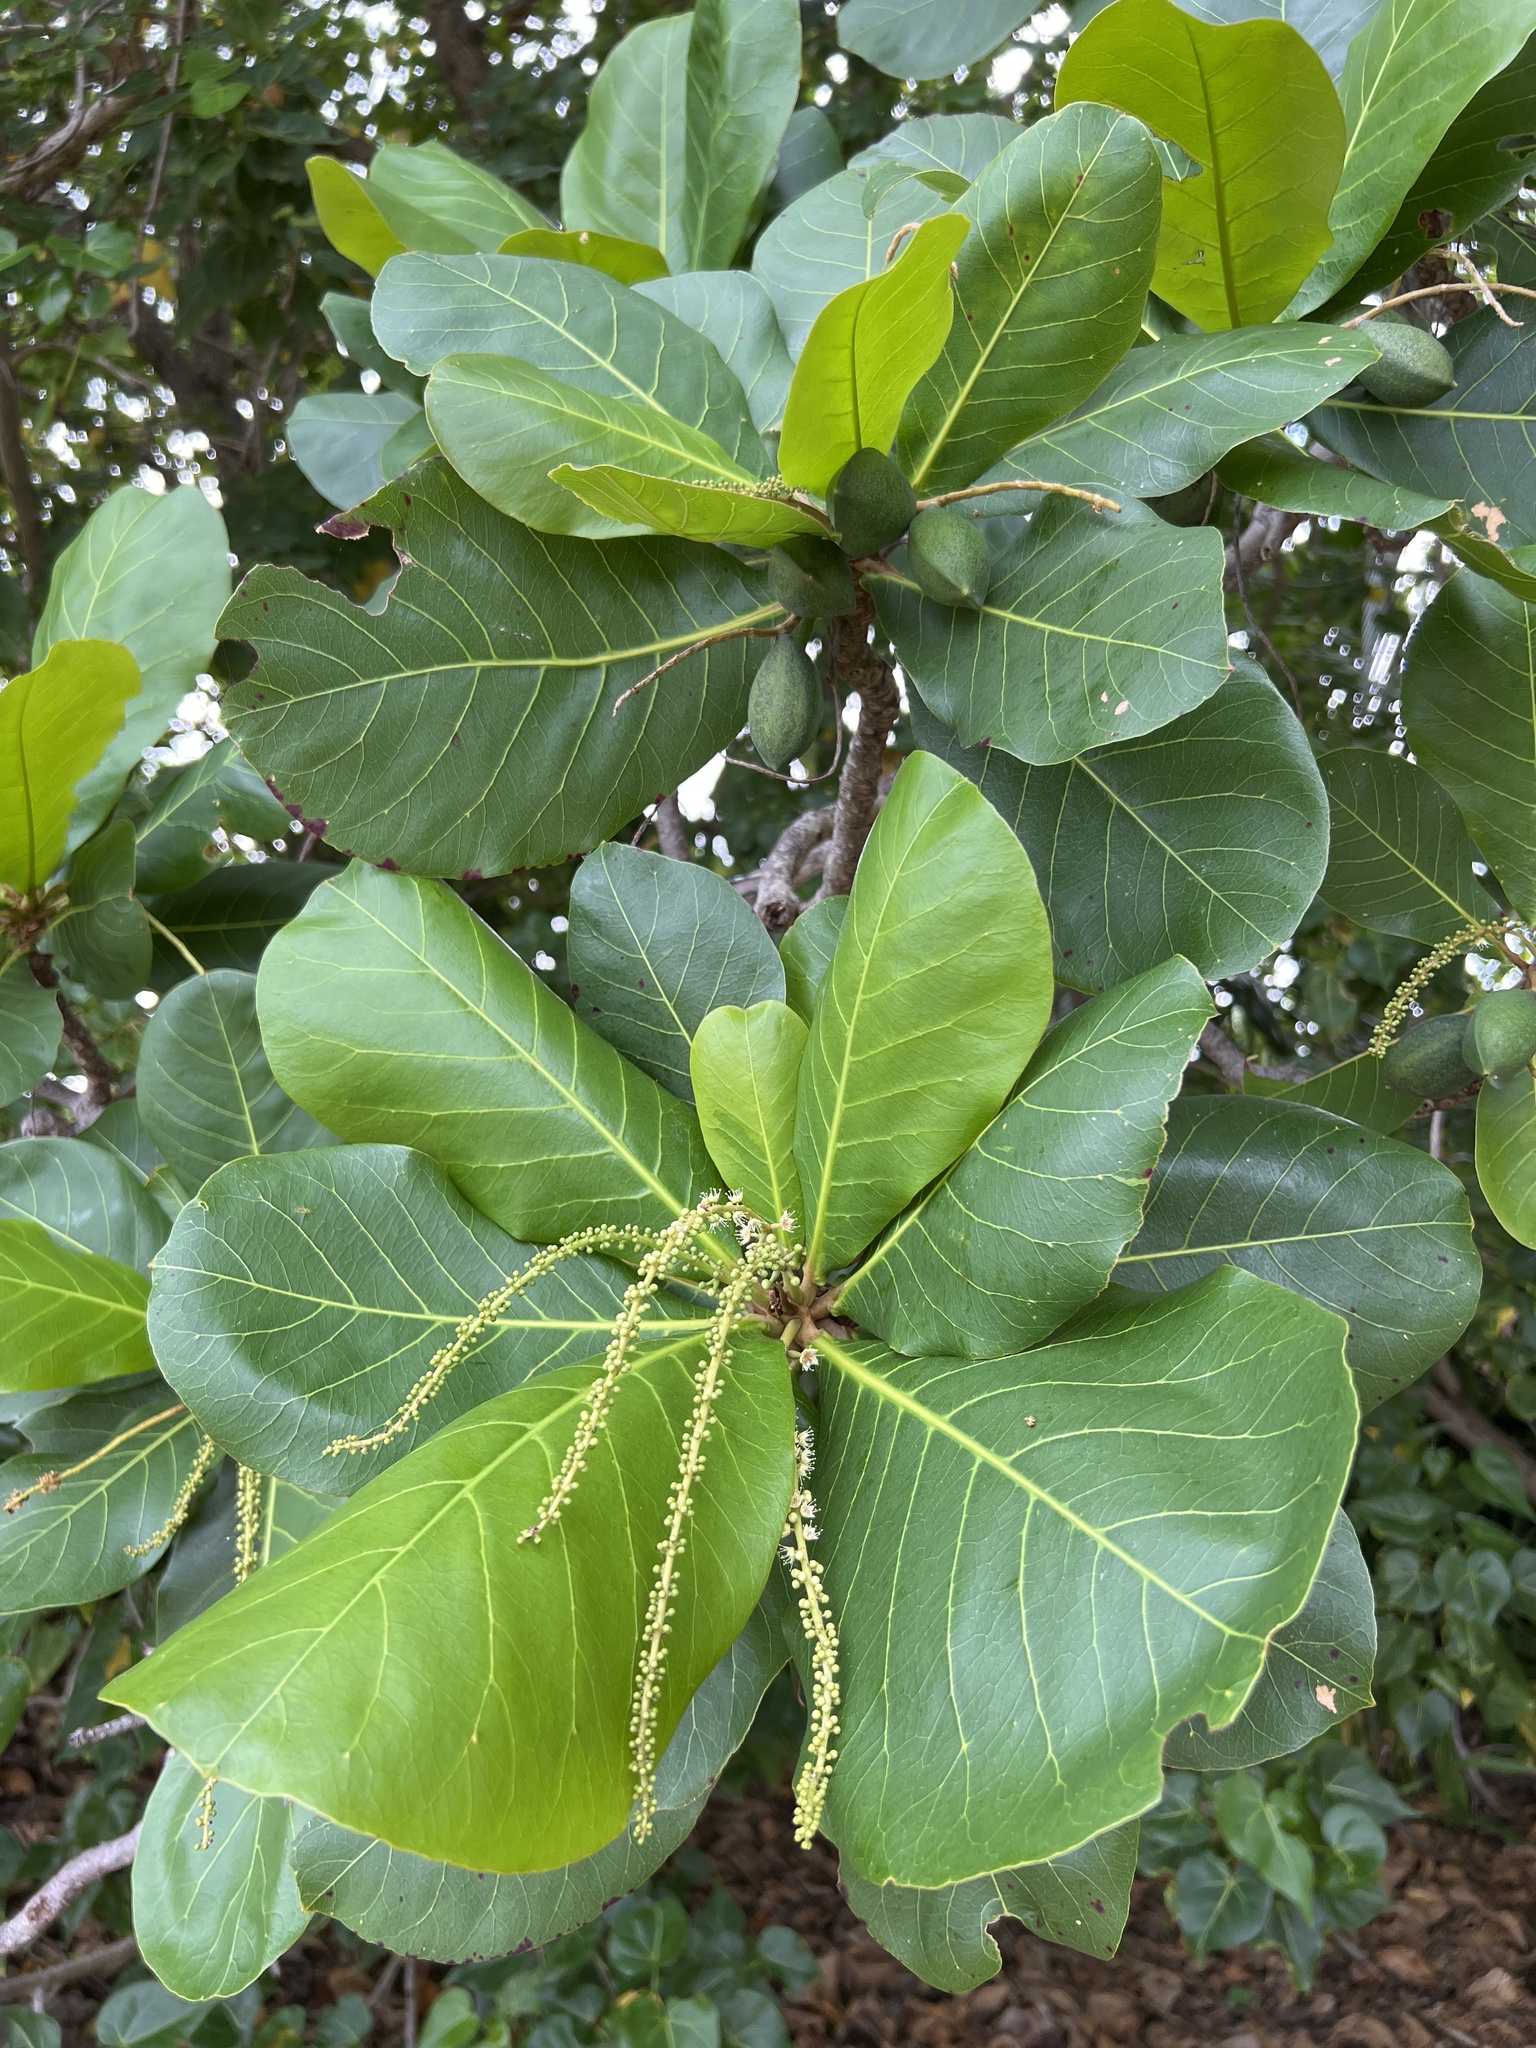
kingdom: Plantae
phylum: Tracheophyta
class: Magnoliopsida
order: Myrtales
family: Combretaceae
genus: Terminalia
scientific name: Terminalia catappa
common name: Tropical almond
